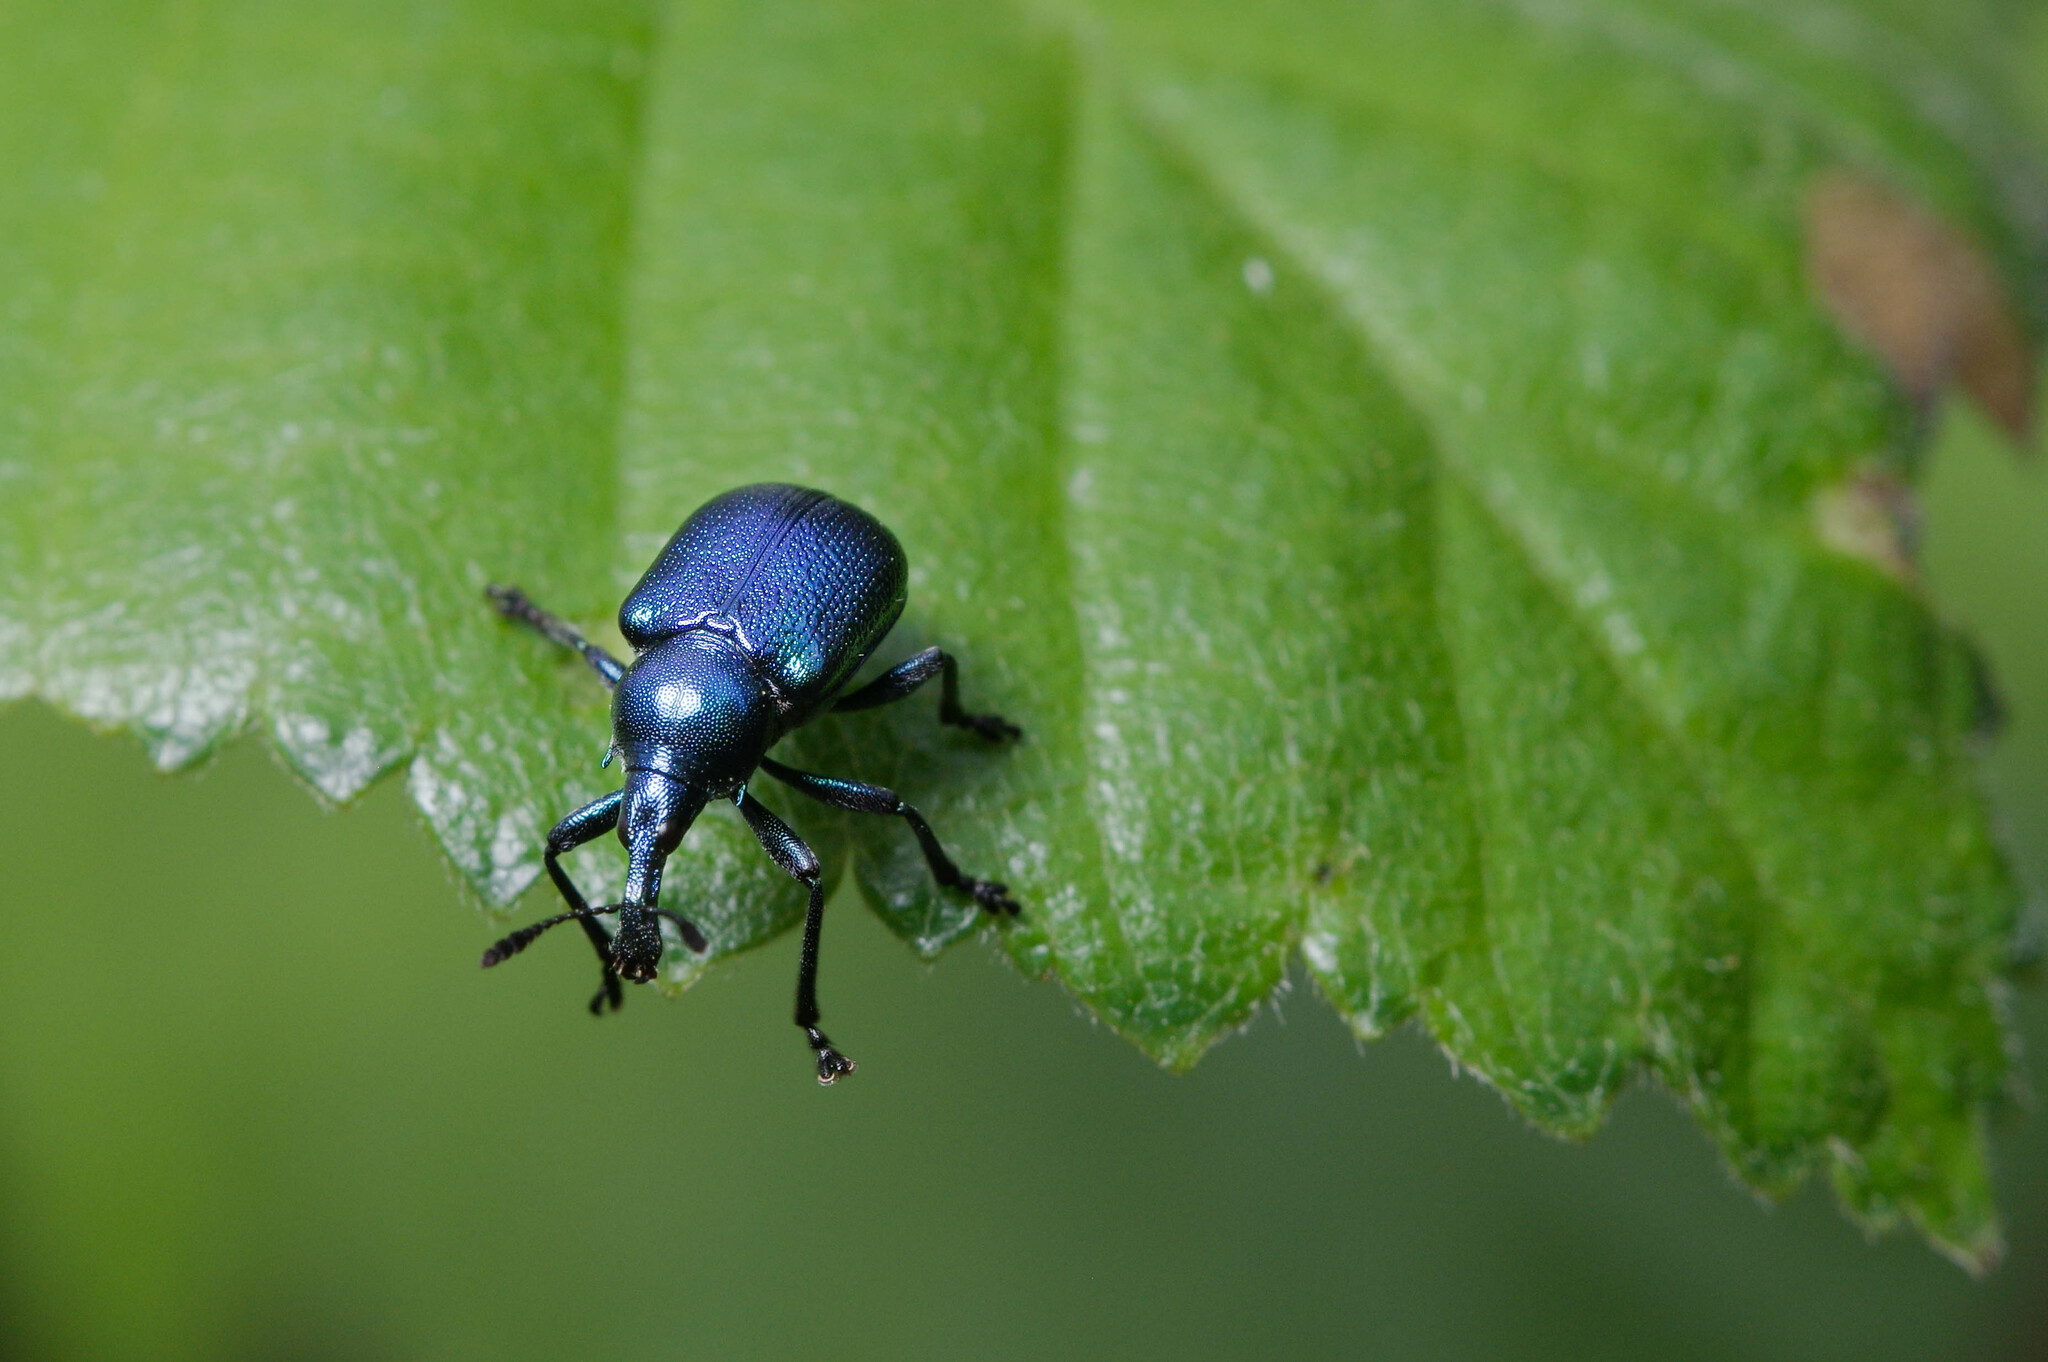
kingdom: Animalia
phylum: Arthropoda
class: Insecta
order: Coleoptera
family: Attelabidae
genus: Byctiscus
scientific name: Byctiscus betulae
